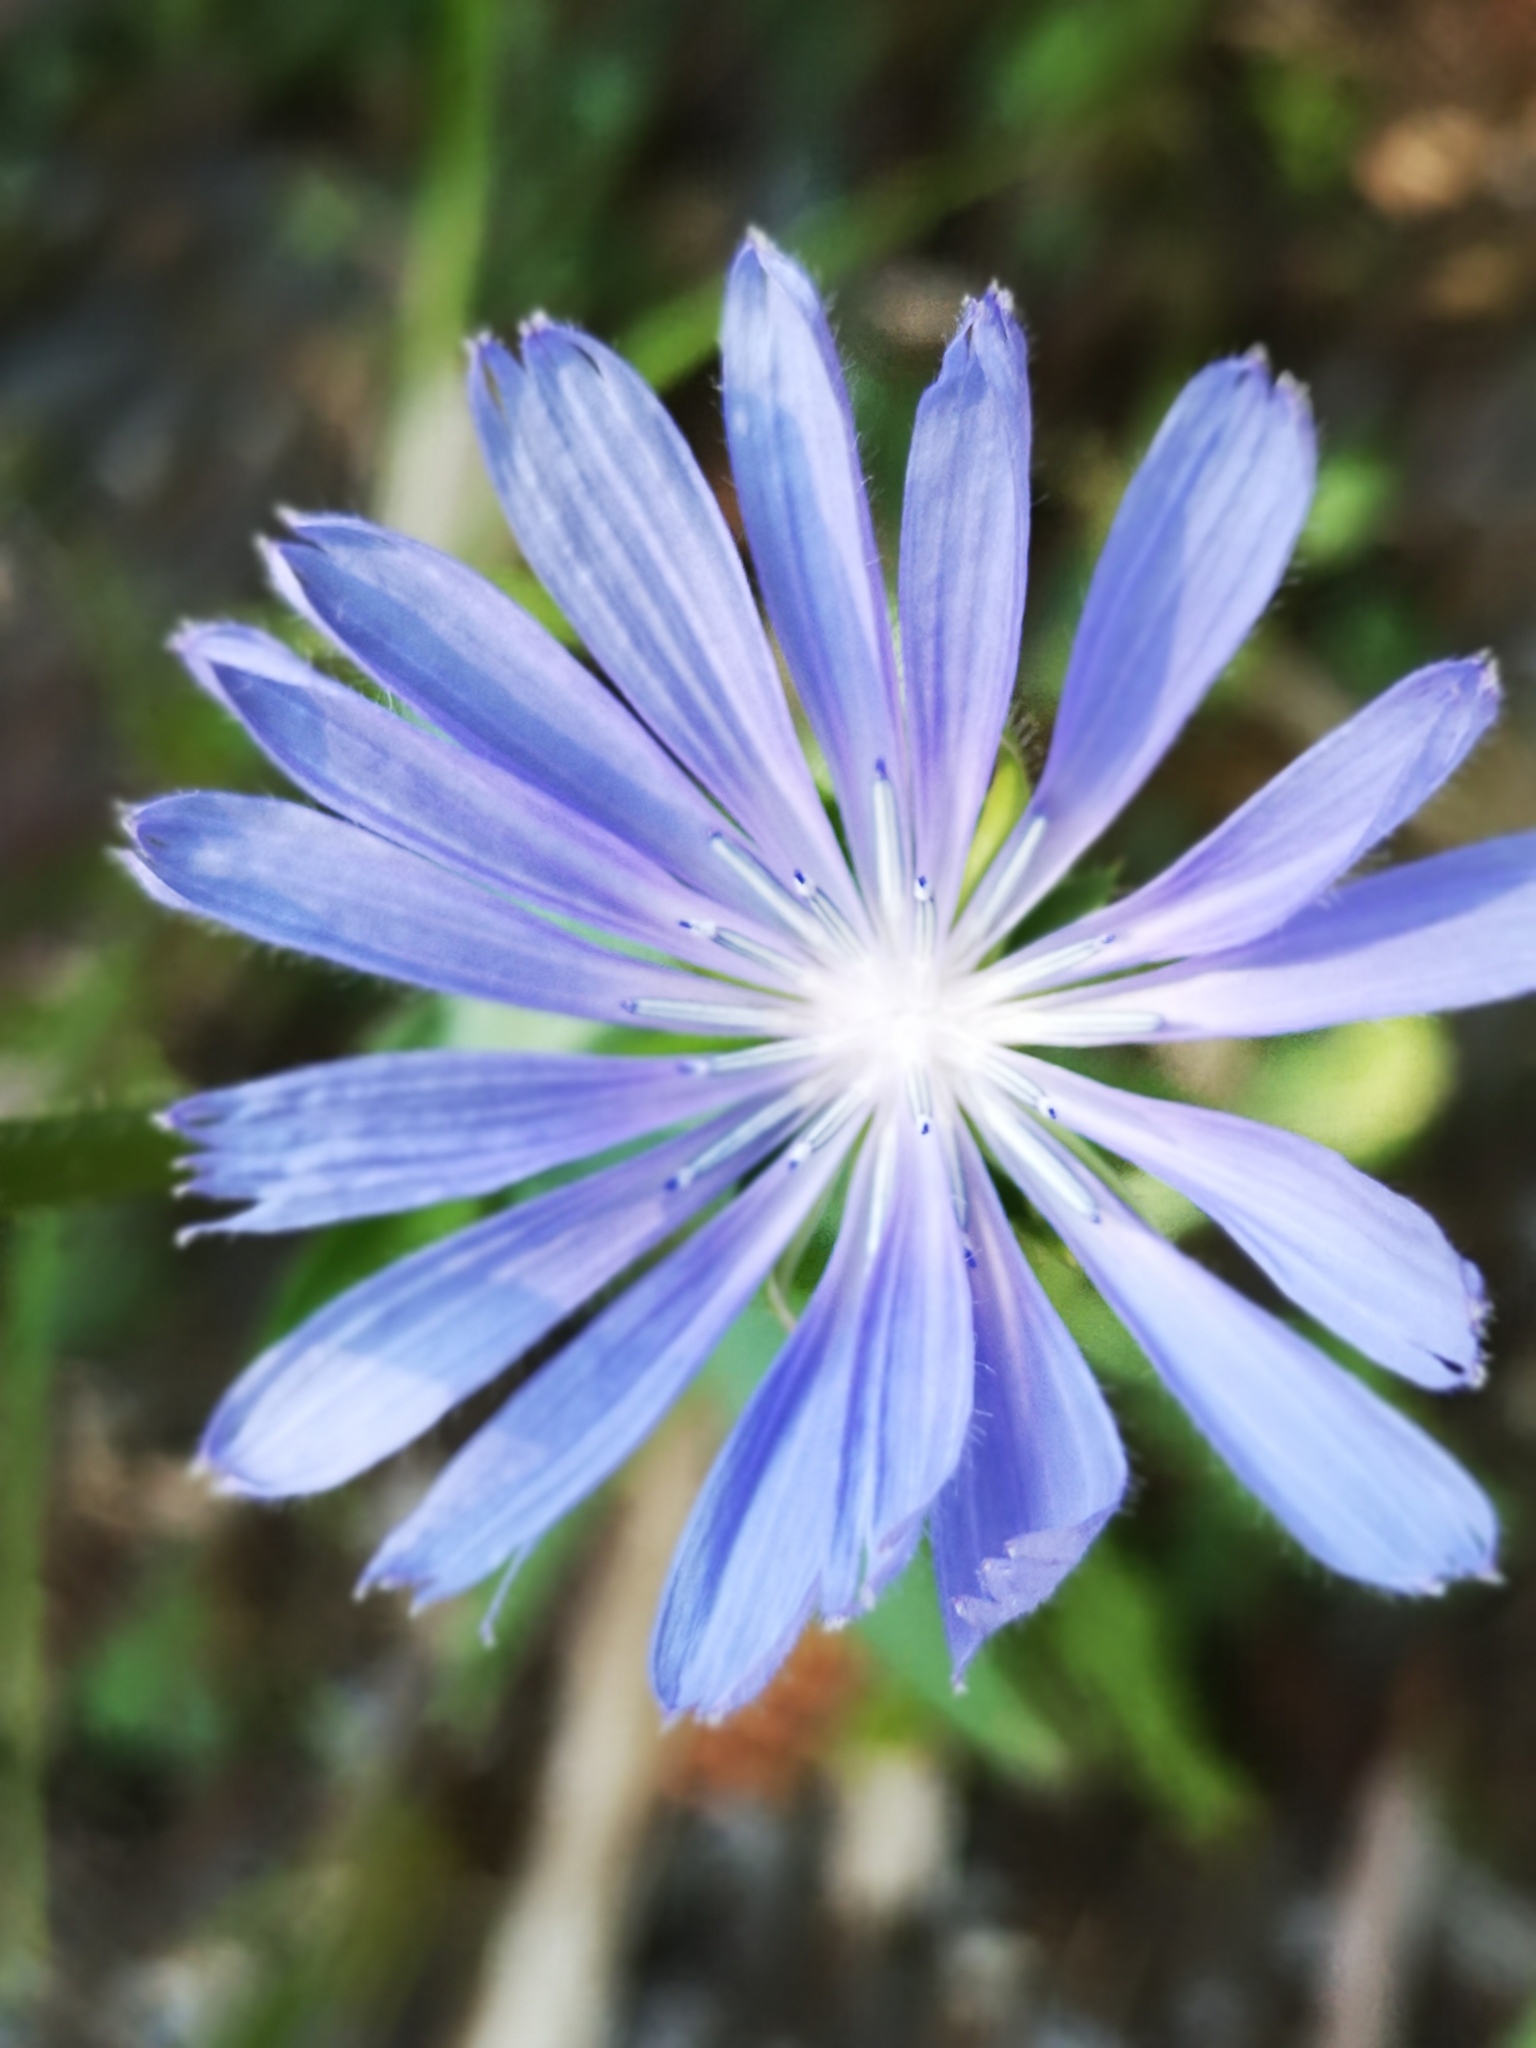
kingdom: Plantae
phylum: Tracheophyta
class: Magnoliopsida
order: Asterales
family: Asteraceae
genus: Cichorium
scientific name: Cichorium intybus
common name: Chicory
